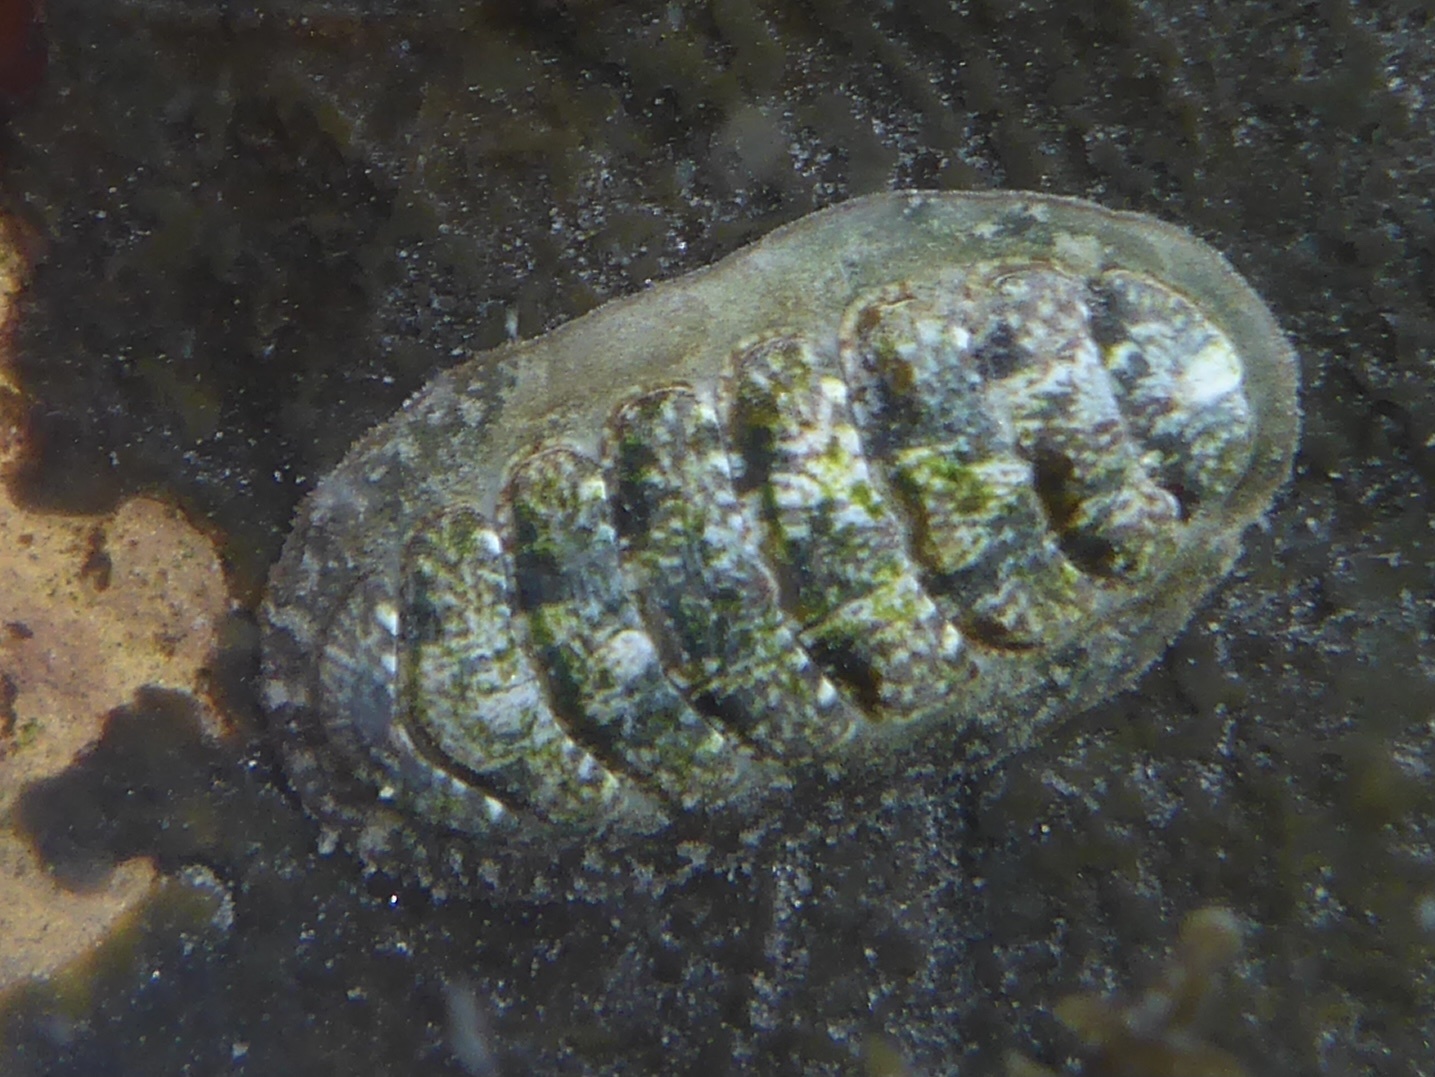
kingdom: Animalia
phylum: Mollusca
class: Polyplacophora
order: Chitonida
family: Tonicellidae
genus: Cyanoplax
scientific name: Cyanoplax dentiens
